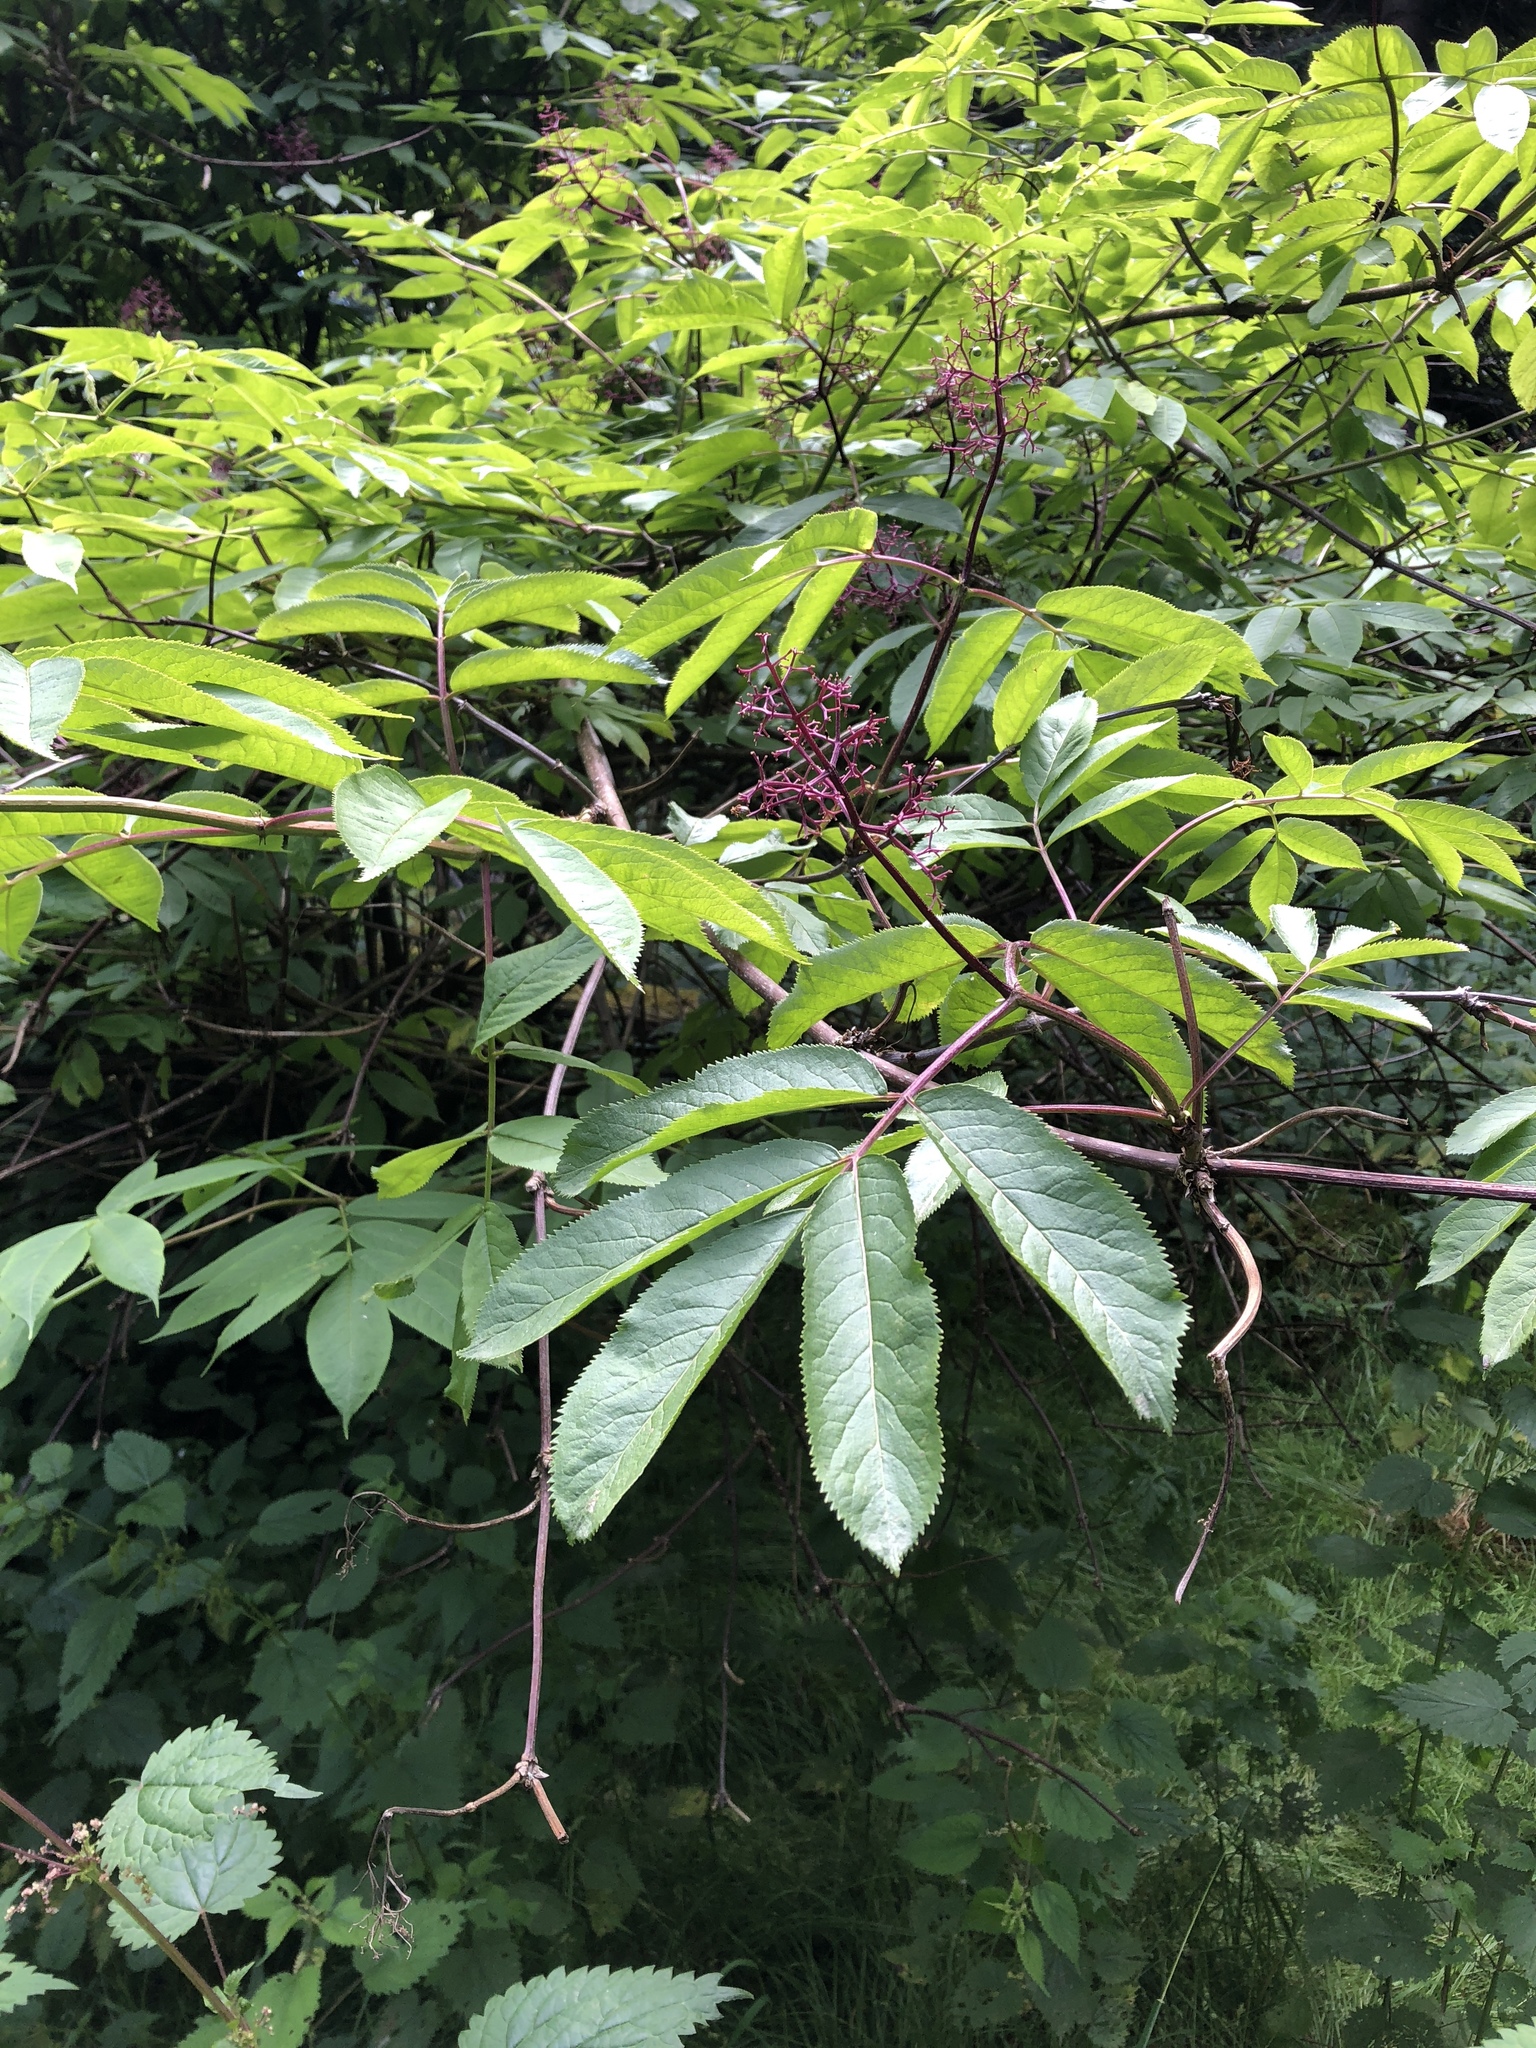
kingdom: Plantae
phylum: Tracheophyta
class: Magnoliopsida
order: Dipsacales
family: Viburnaceae
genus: Sambucus
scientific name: Sambucus racemosa
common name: Red-berried elder
